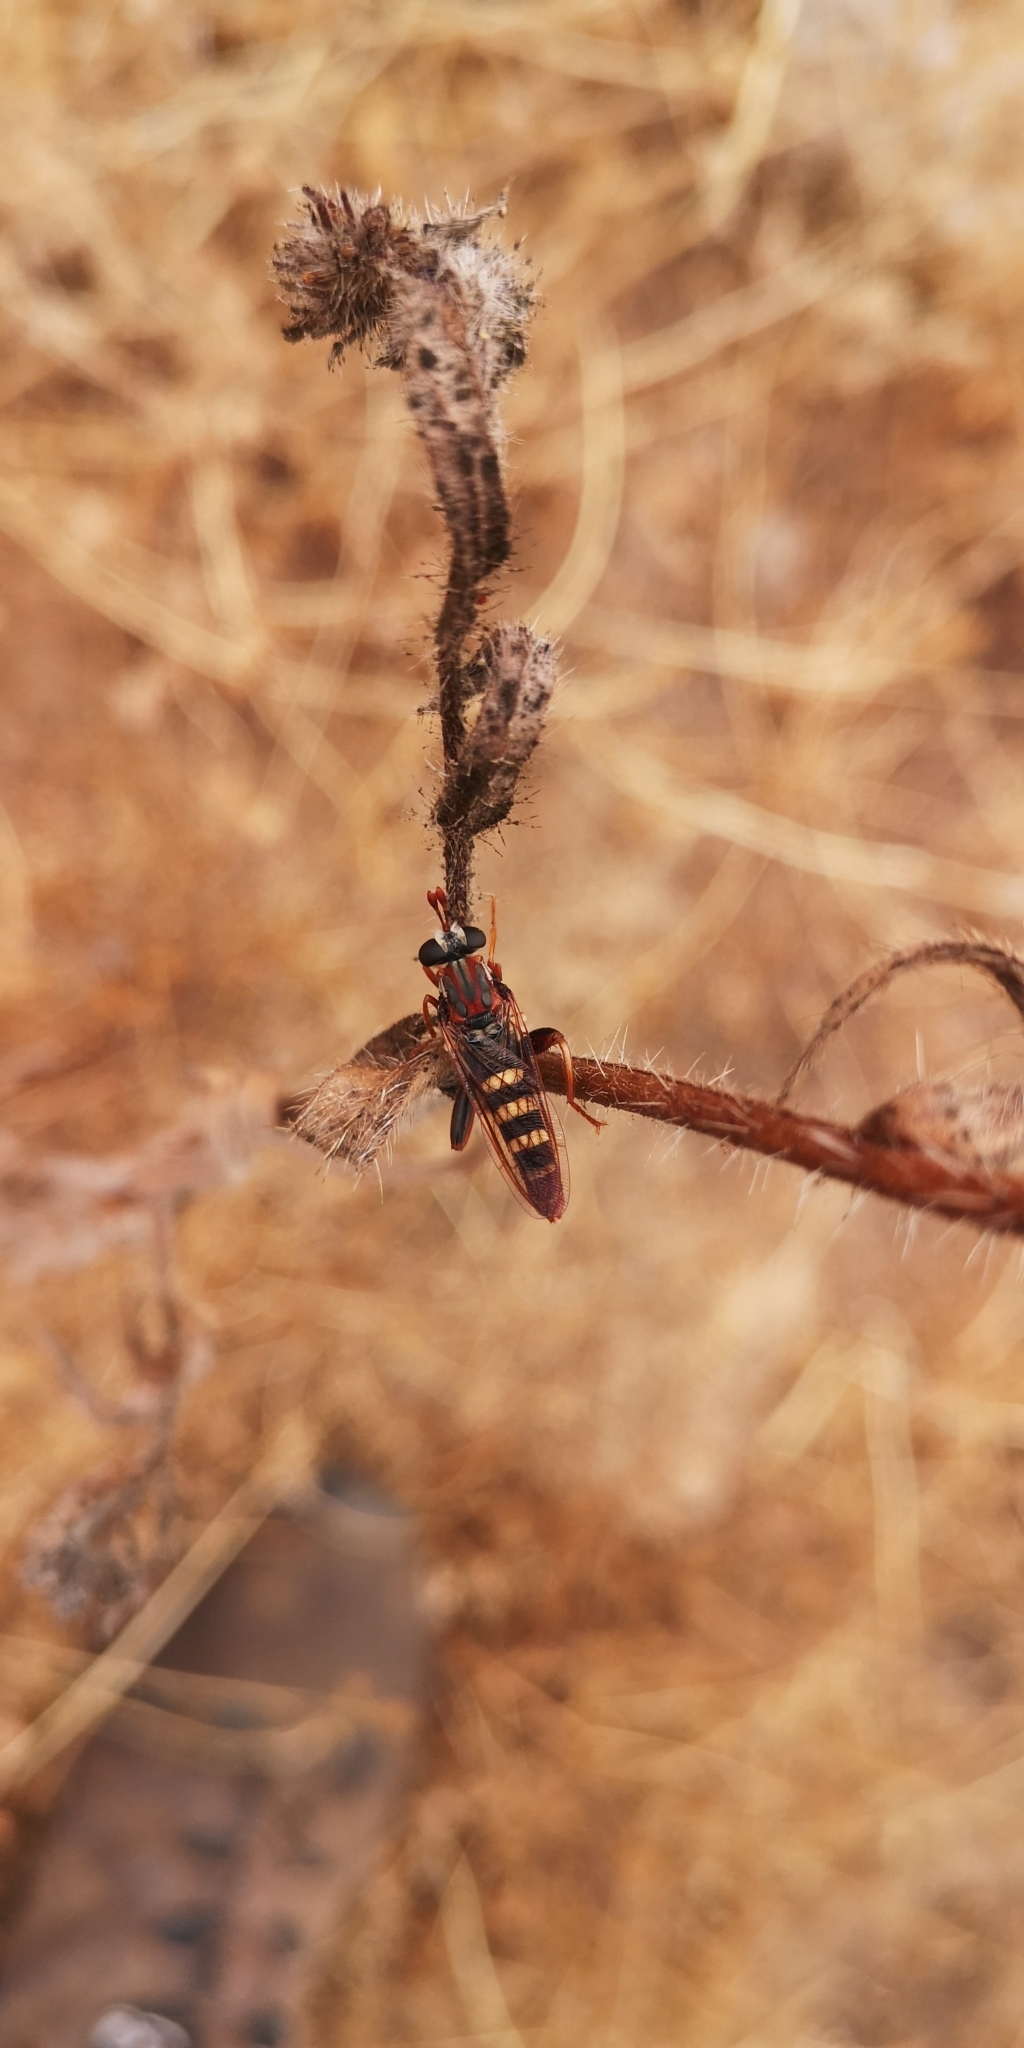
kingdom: Animalia
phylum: Arthropoda
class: Insecta
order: Diptera
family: Mydidae
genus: Apiophora
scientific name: Apiophora paulseni
